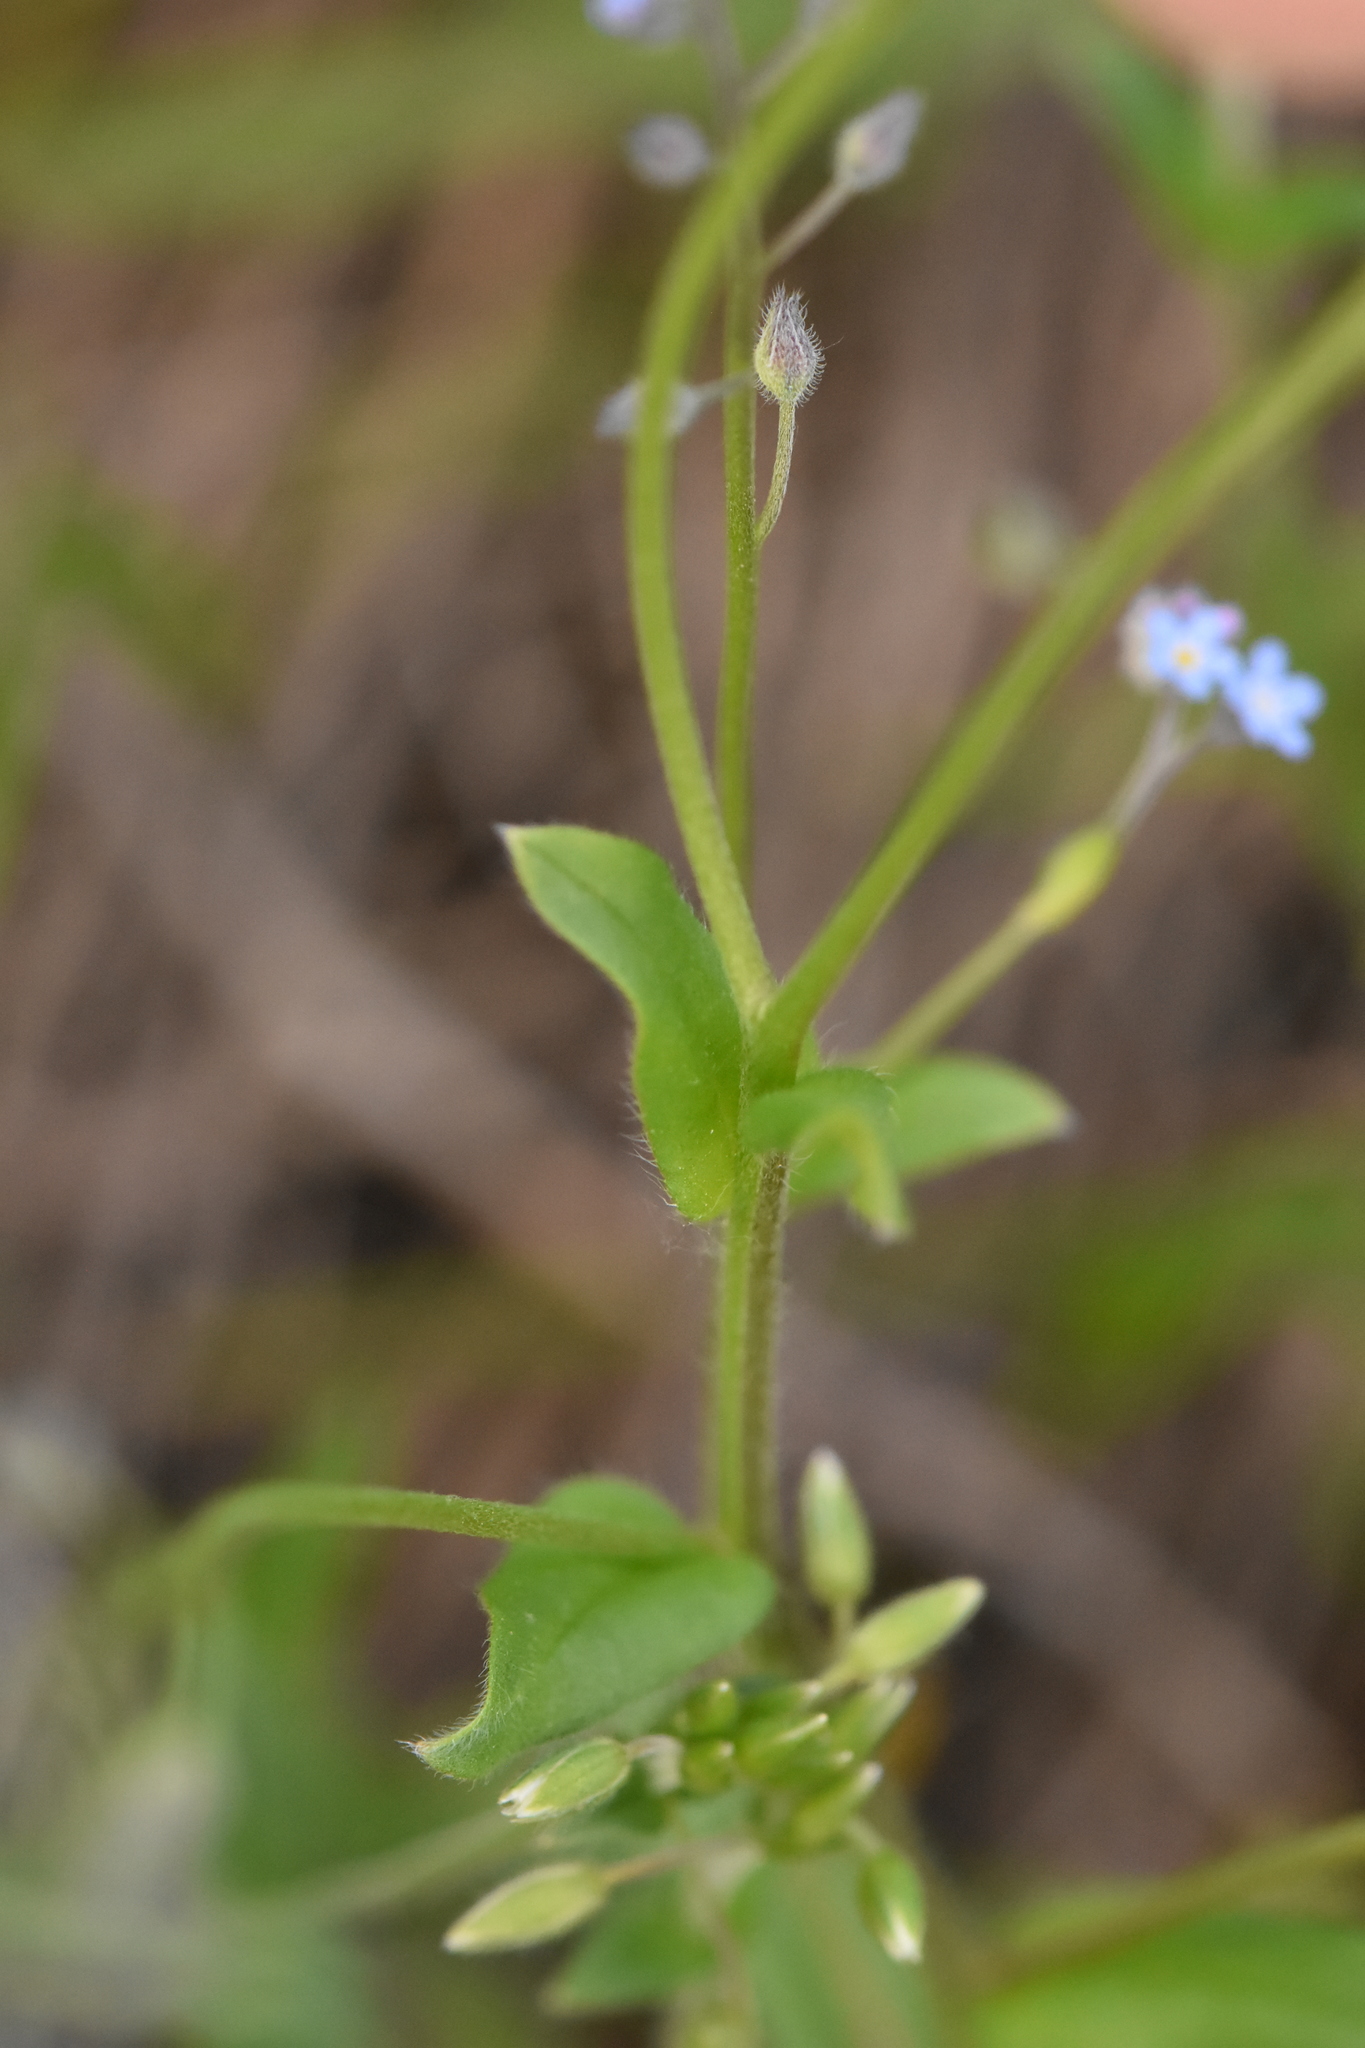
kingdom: Plantae
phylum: Tracheophyta
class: Magnoliopsida
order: Boraginales
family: Boraginaceae
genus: Myosotis
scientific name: Myosotis arvensis
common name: Field forget-me-not
